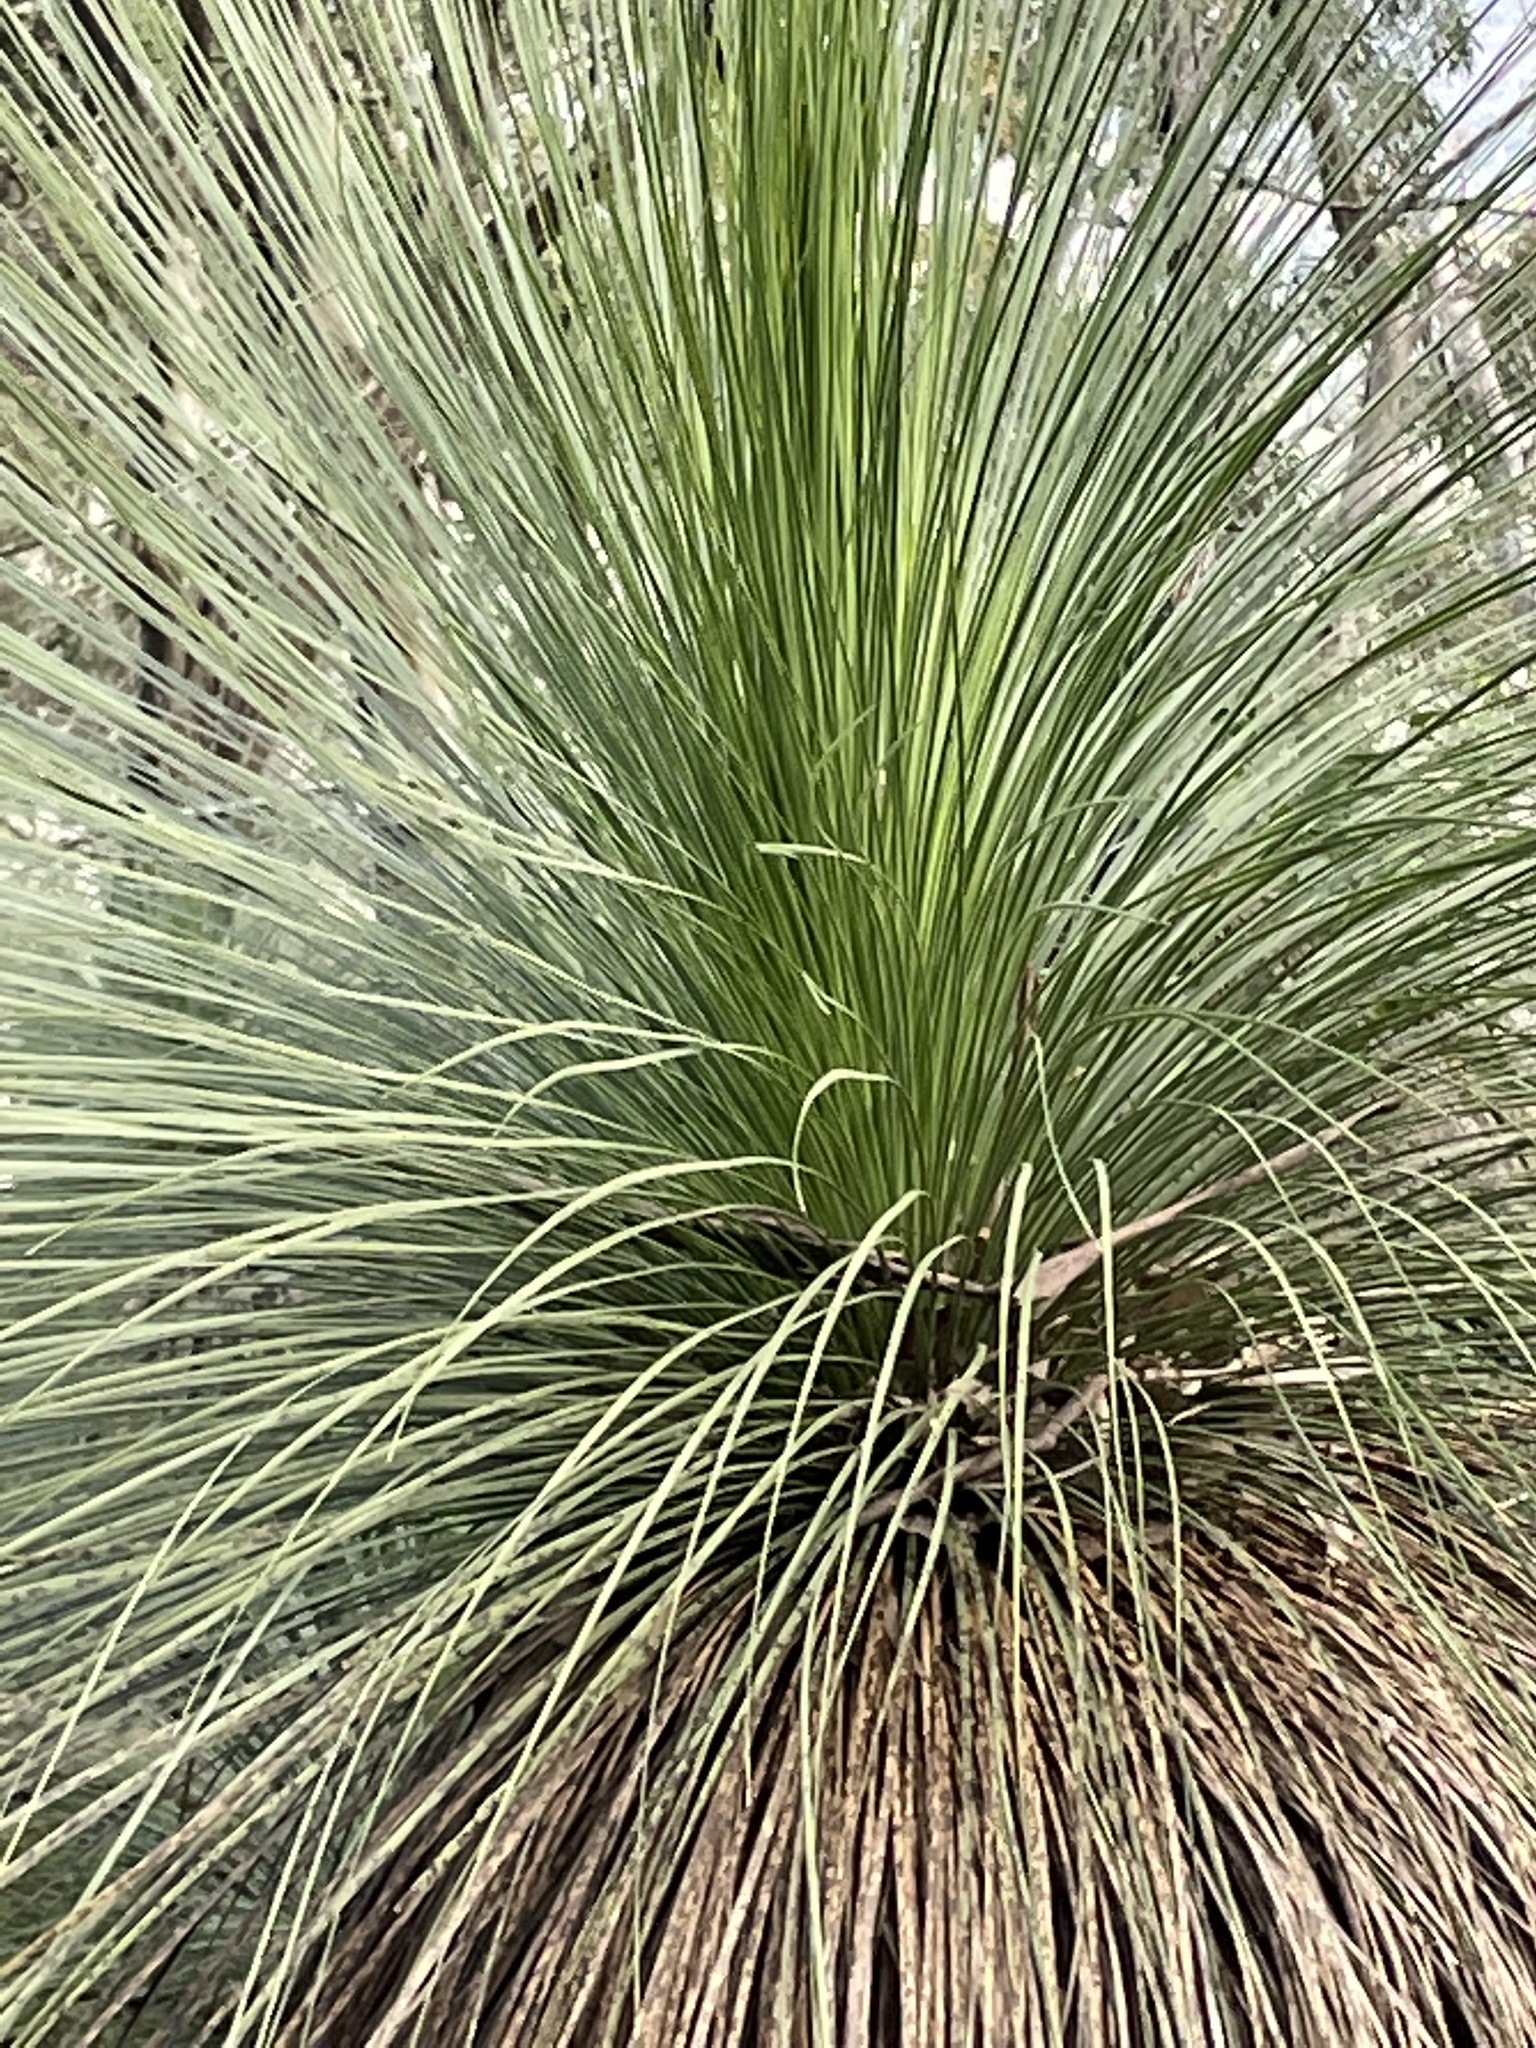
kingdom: Plantae
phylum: Tracheophyta
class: Liliopsida
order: Asparagales
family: Asphodelaceae
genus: Xanthorrhoea
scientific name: Xanthorrhoea glauca
